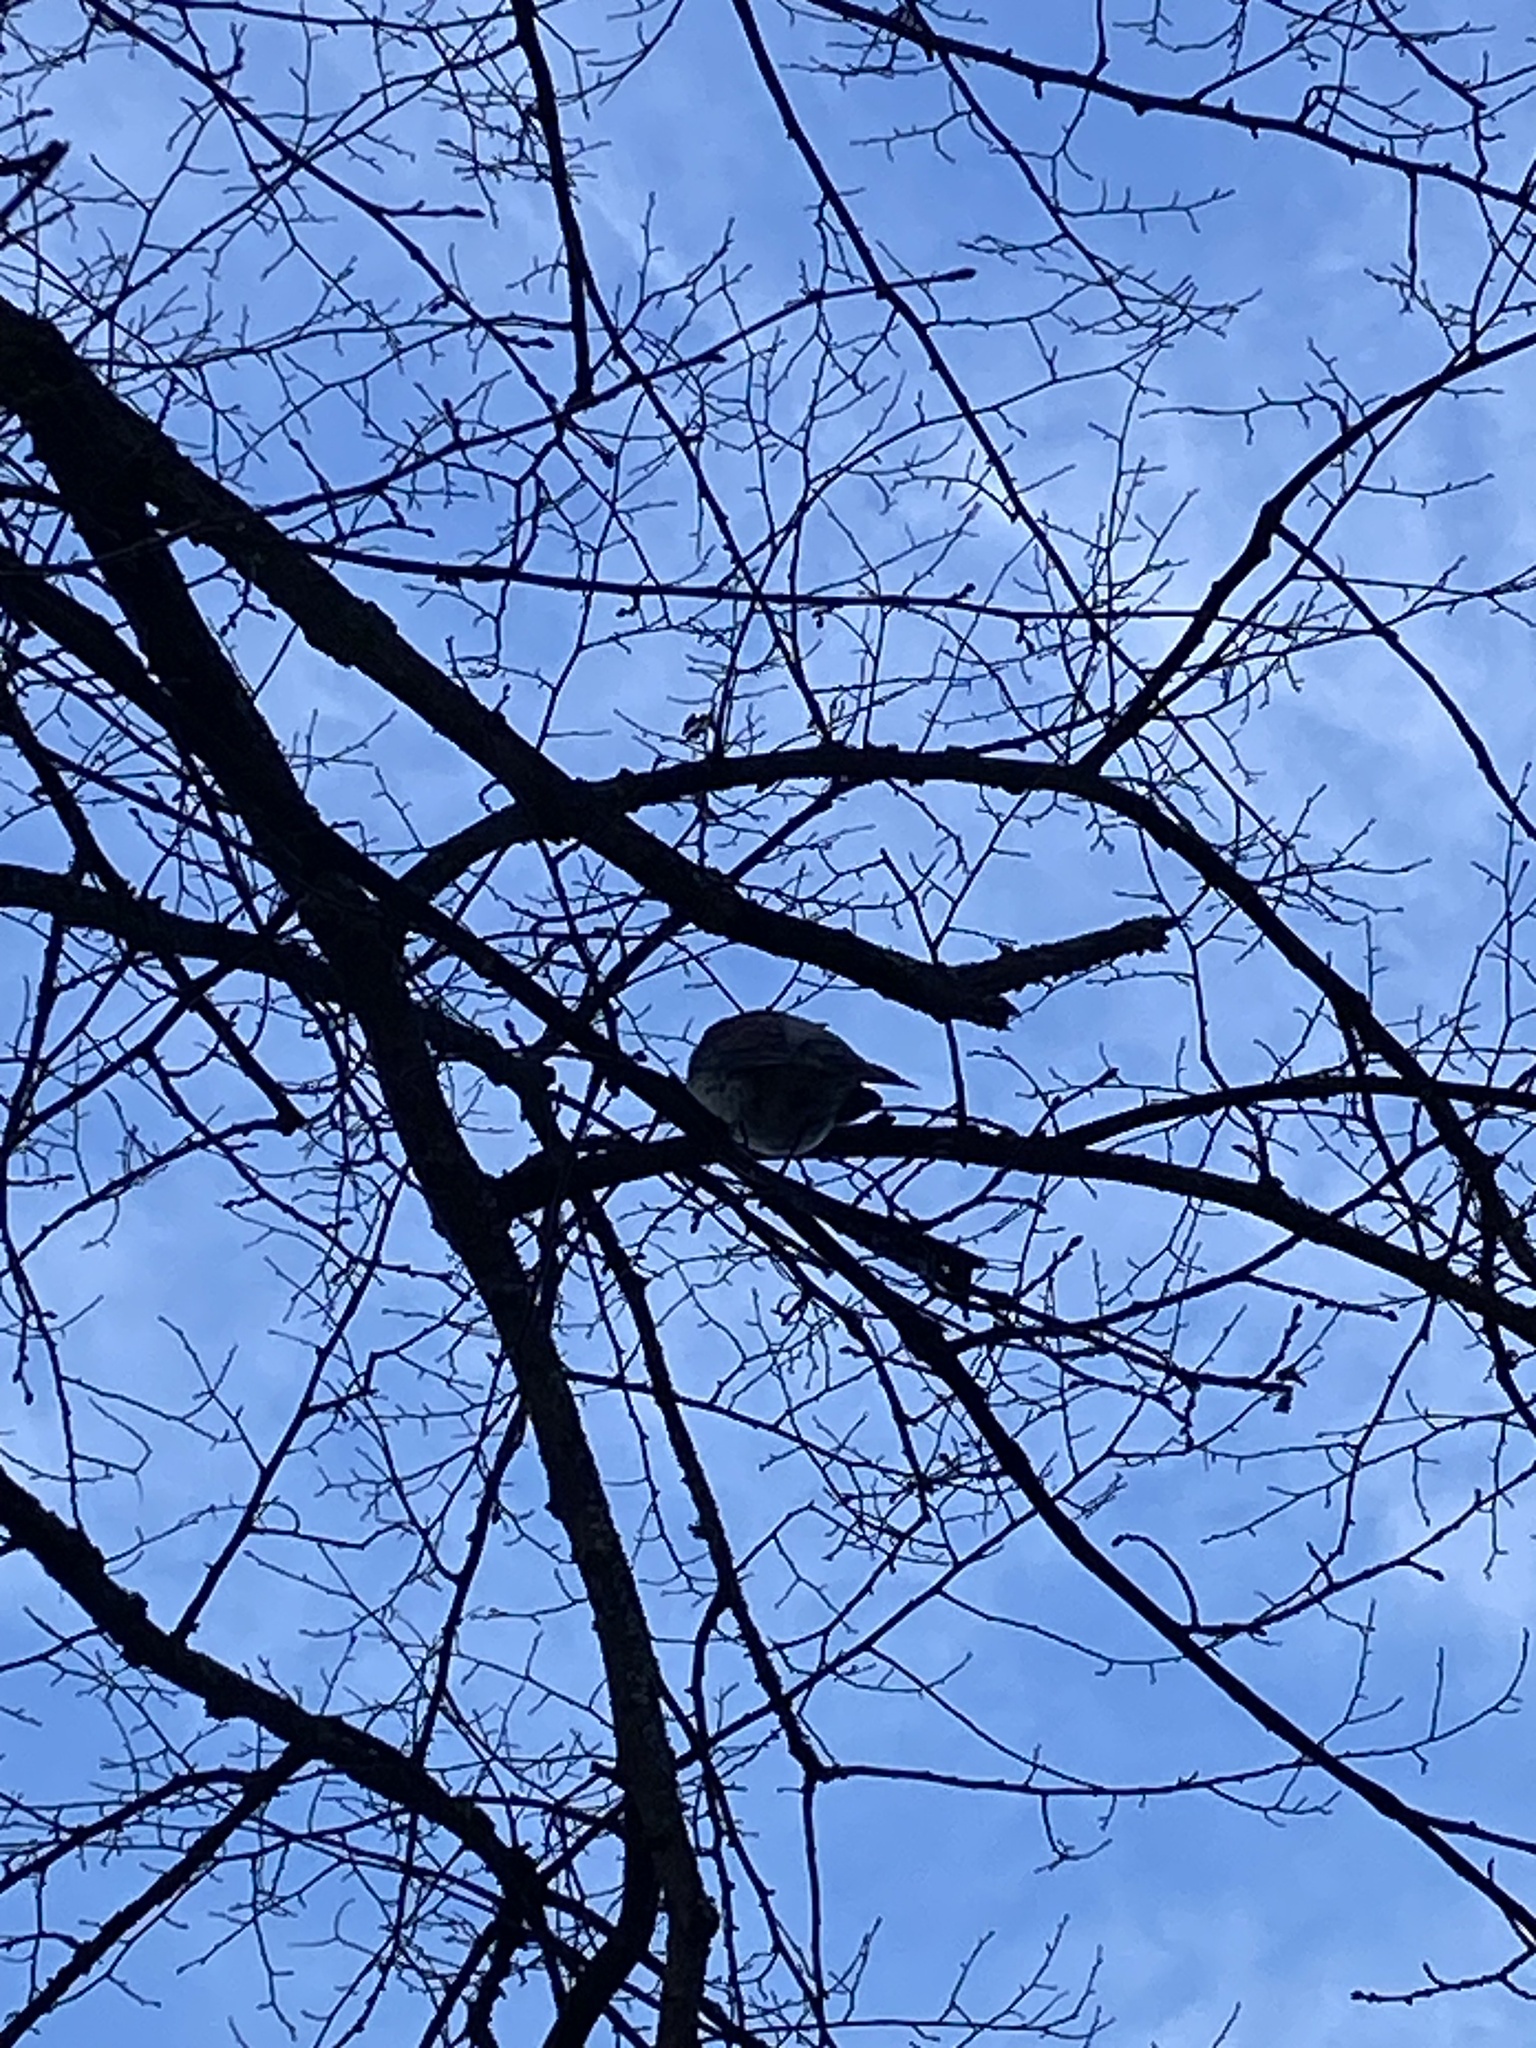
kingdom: Animalia
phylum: Chordata
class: Aves
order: Passeriformes
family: Turdidae
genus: Turdus
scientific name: Turdus pilaris
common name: Fieldfare
